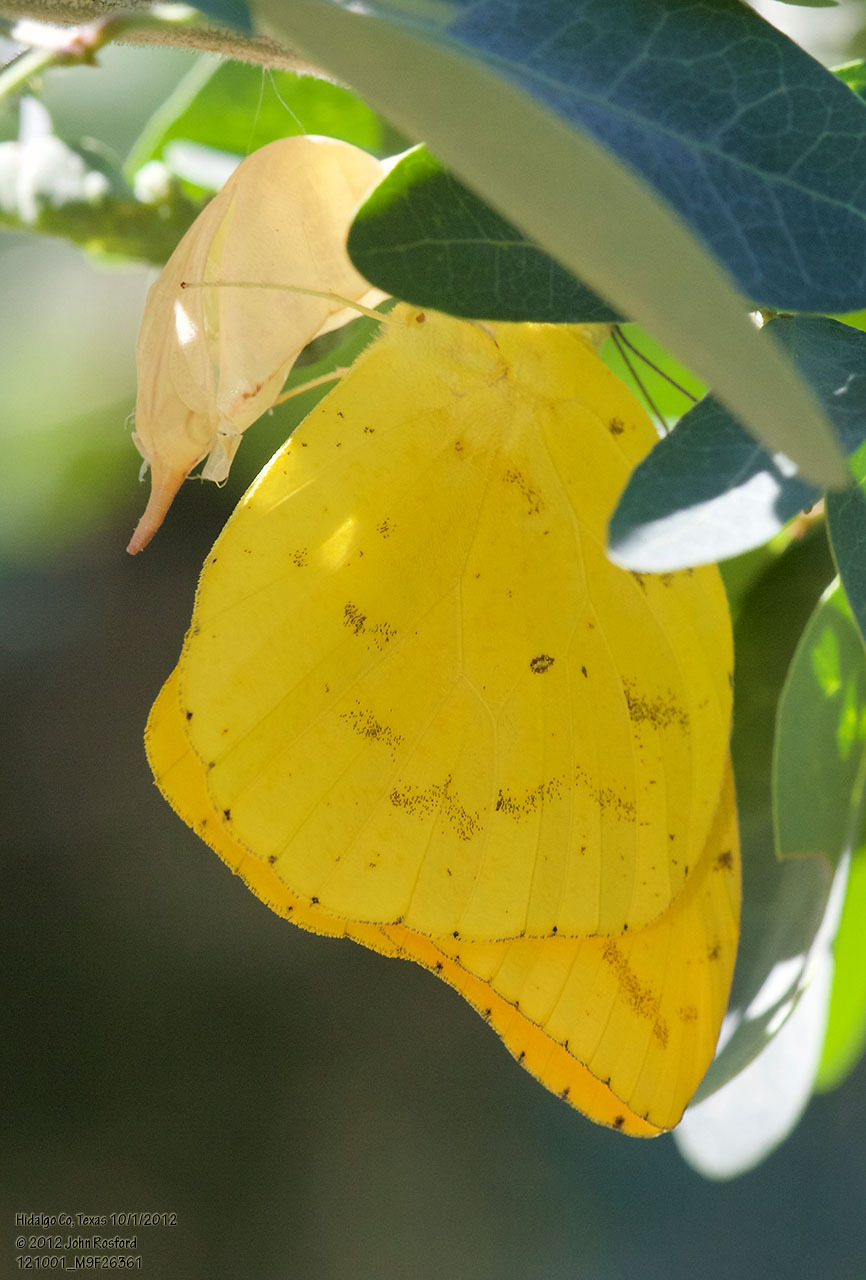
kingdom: Animalia
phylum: Arthropoda
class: Insecta
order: Lepidoptera
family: Pieridae
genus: Phoebis
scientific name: Phoebis agarithe
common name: Large orange sulphur
